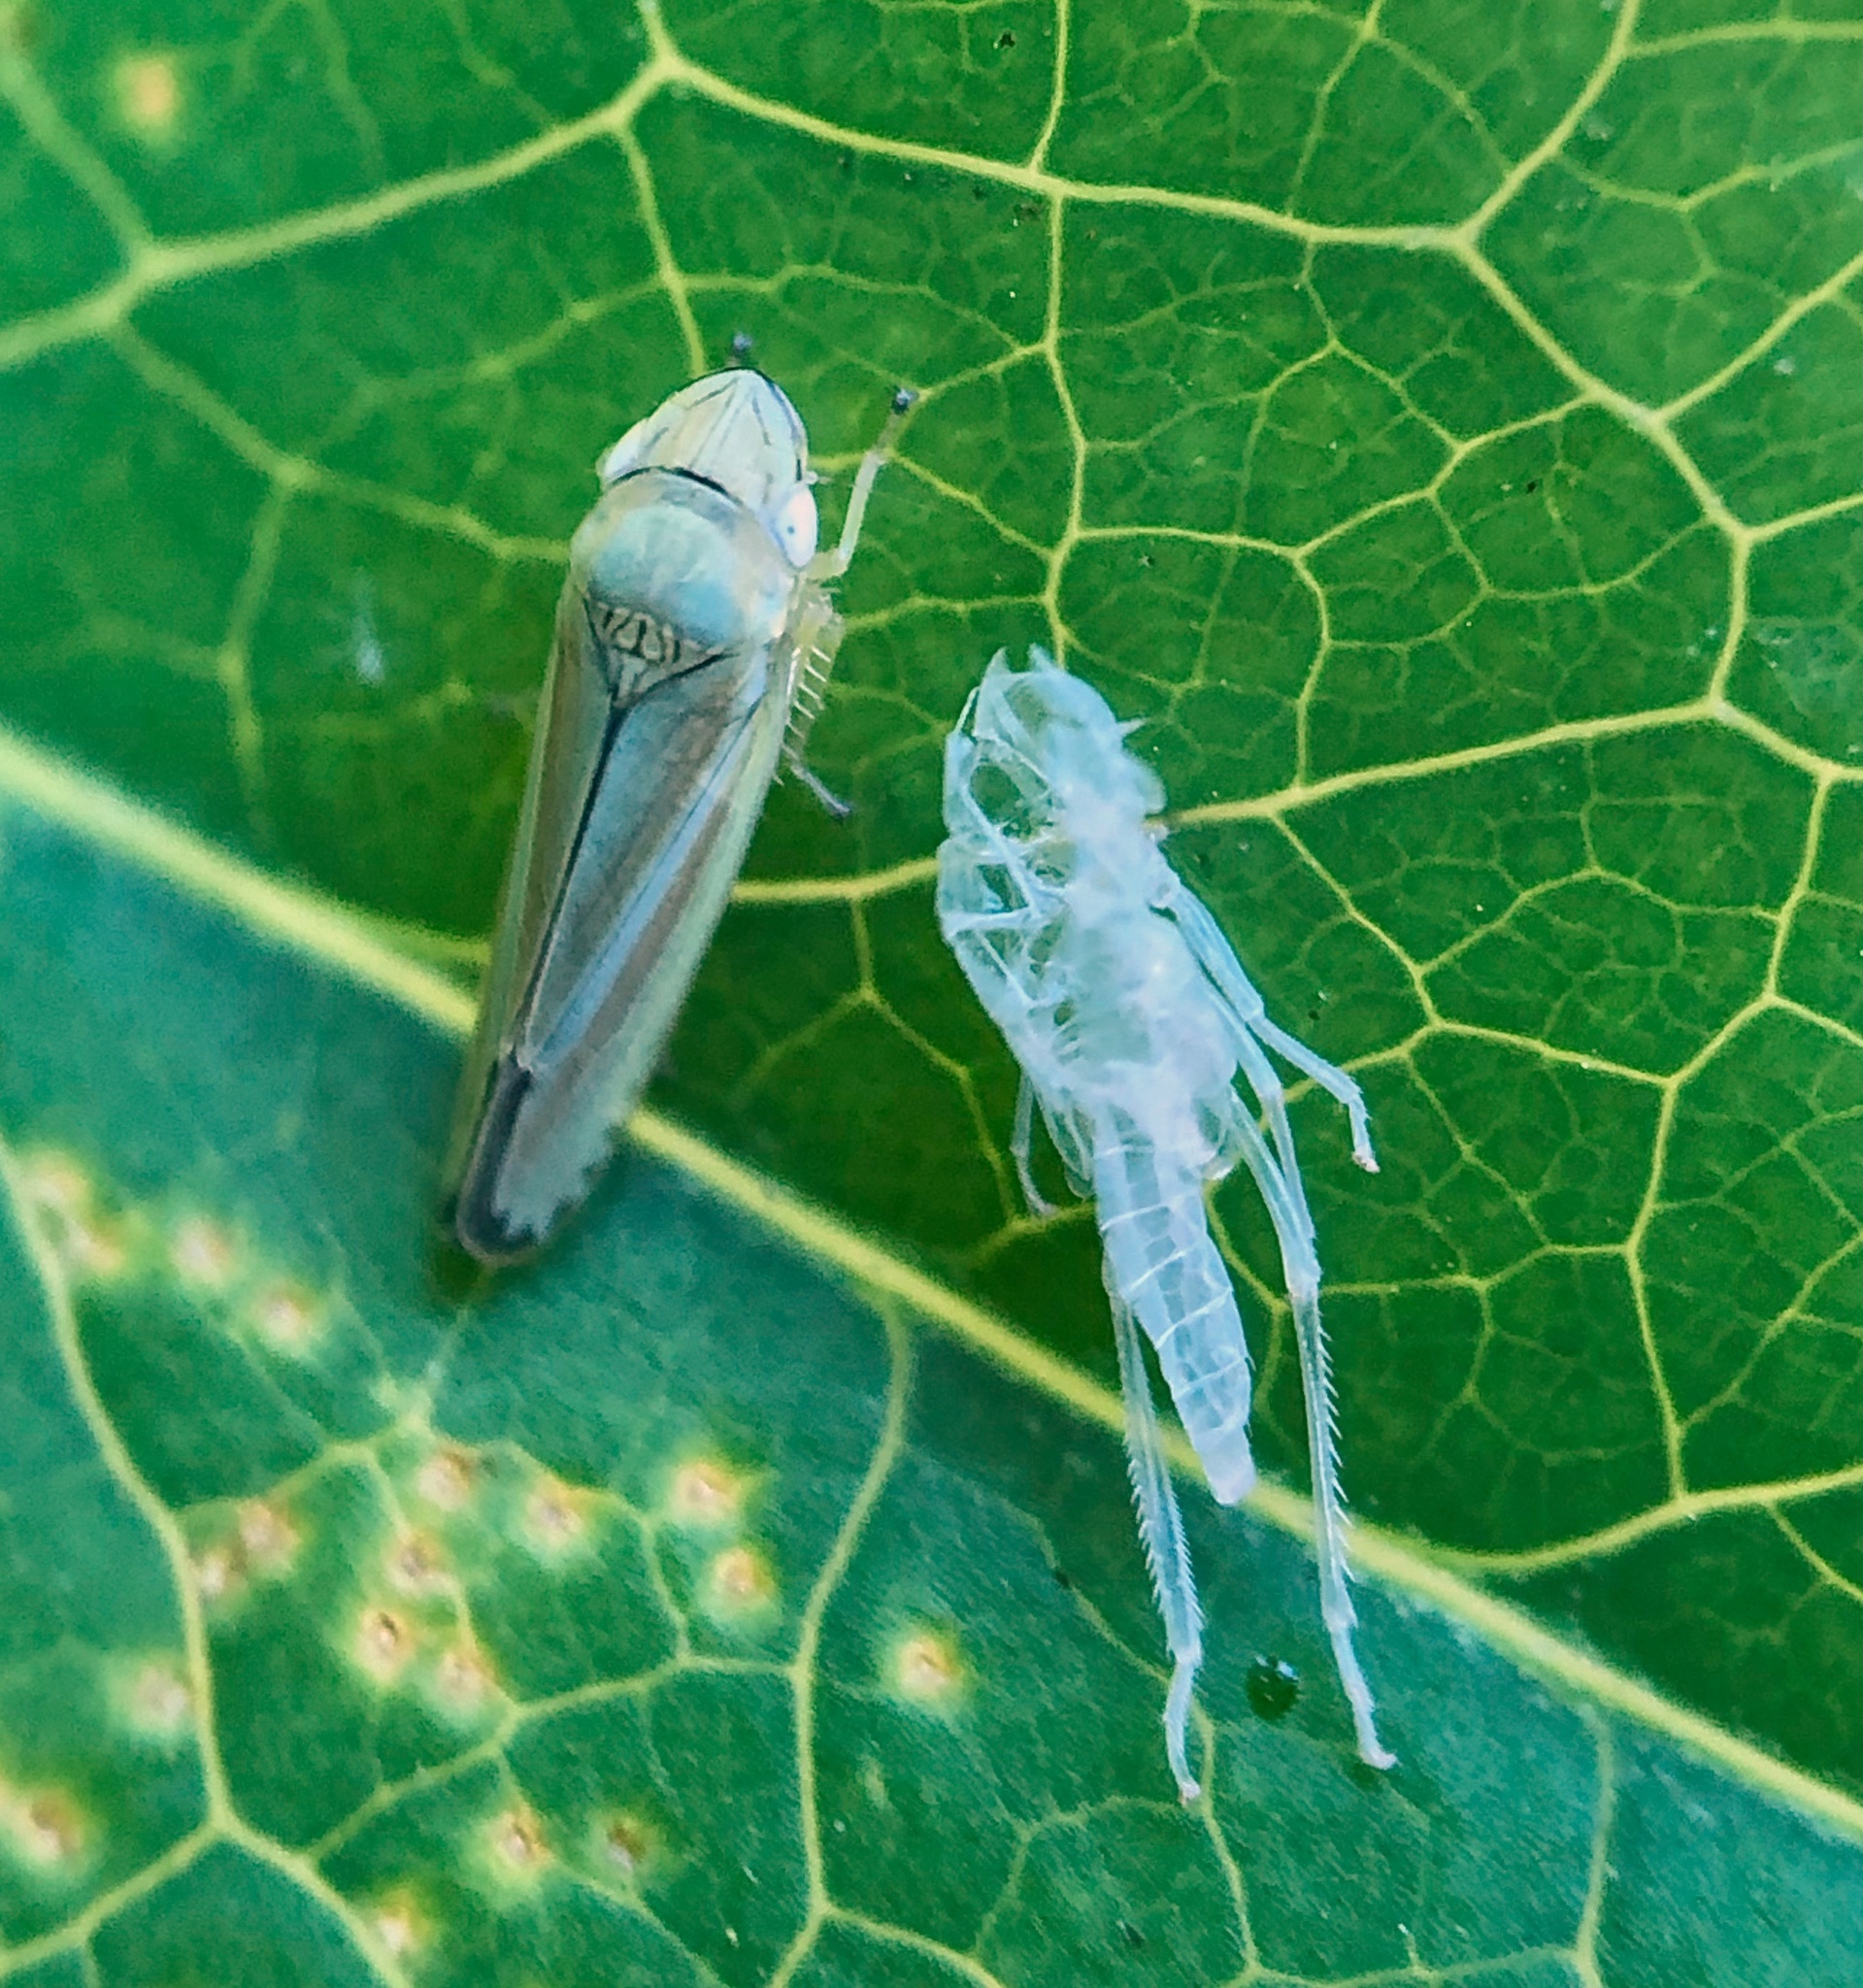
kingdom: Animalia
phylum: Arthropoda
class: Insecta
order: Hemiptera
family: Cicadellidae
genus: Graphocephala
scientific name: Graphocephala versuta
